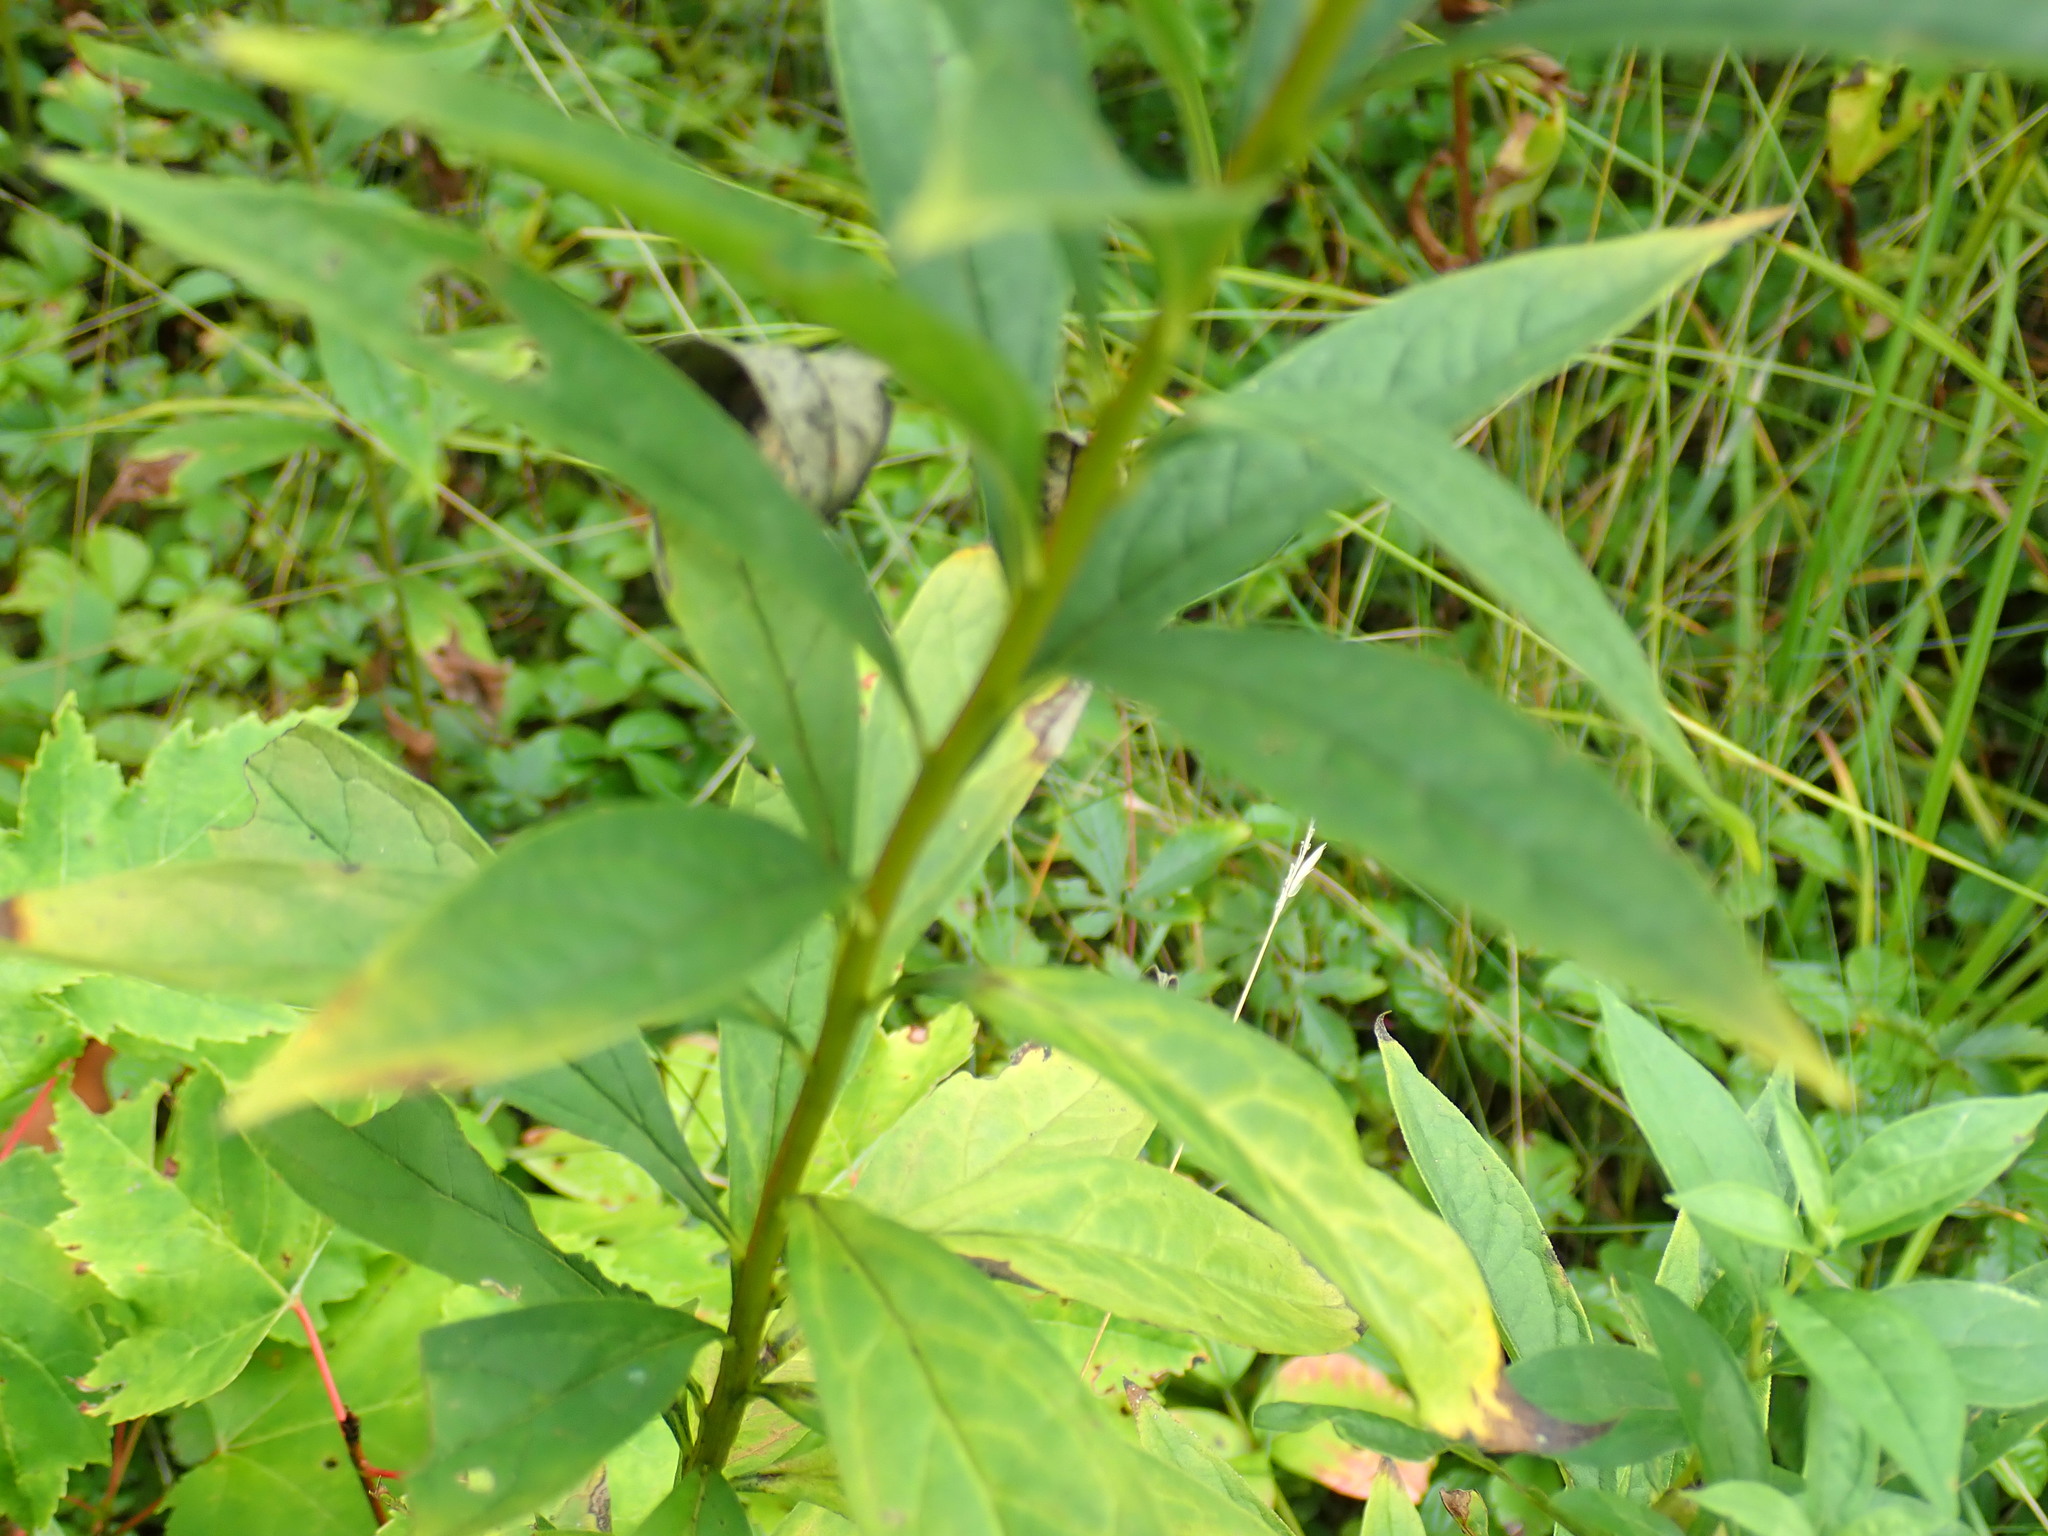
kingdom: Plantae
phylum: Tracheophyta
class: Magnoliopsida
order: Asterales
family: Asteraceae
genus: Doellingeria
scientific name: Doellingeria umbellata
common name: Flat-top white aster
